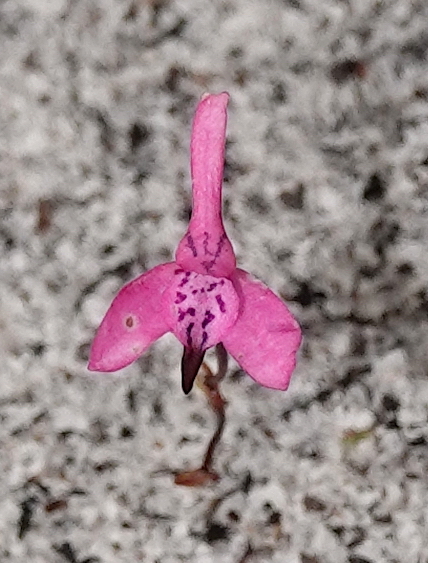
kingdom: Plantae
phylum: Tracheophyta
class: Liliopsida
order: Asparagales
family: Orchidaceae
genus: Disa
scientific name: Disa obliqua
